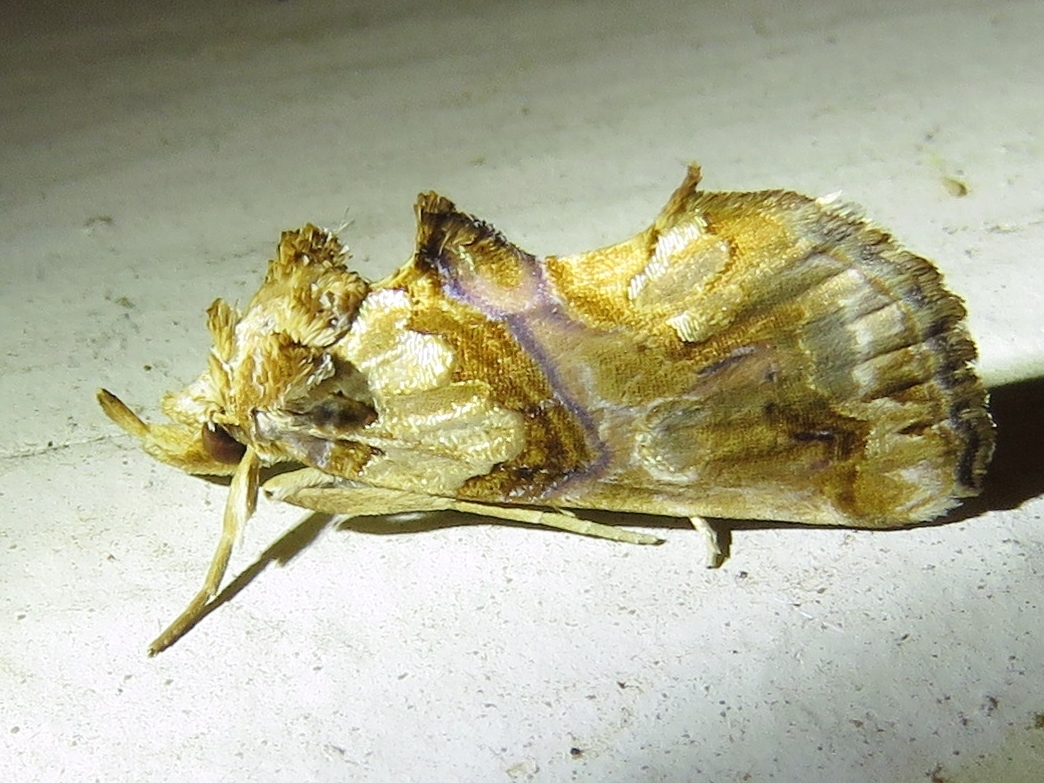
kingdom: Animalia
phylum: Arthropoda
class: Insecta
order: Lepidoptera
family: Erebidae
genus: Plusiodonta
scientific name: Plusiodonta compressipalpis
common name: Moonseed moth
